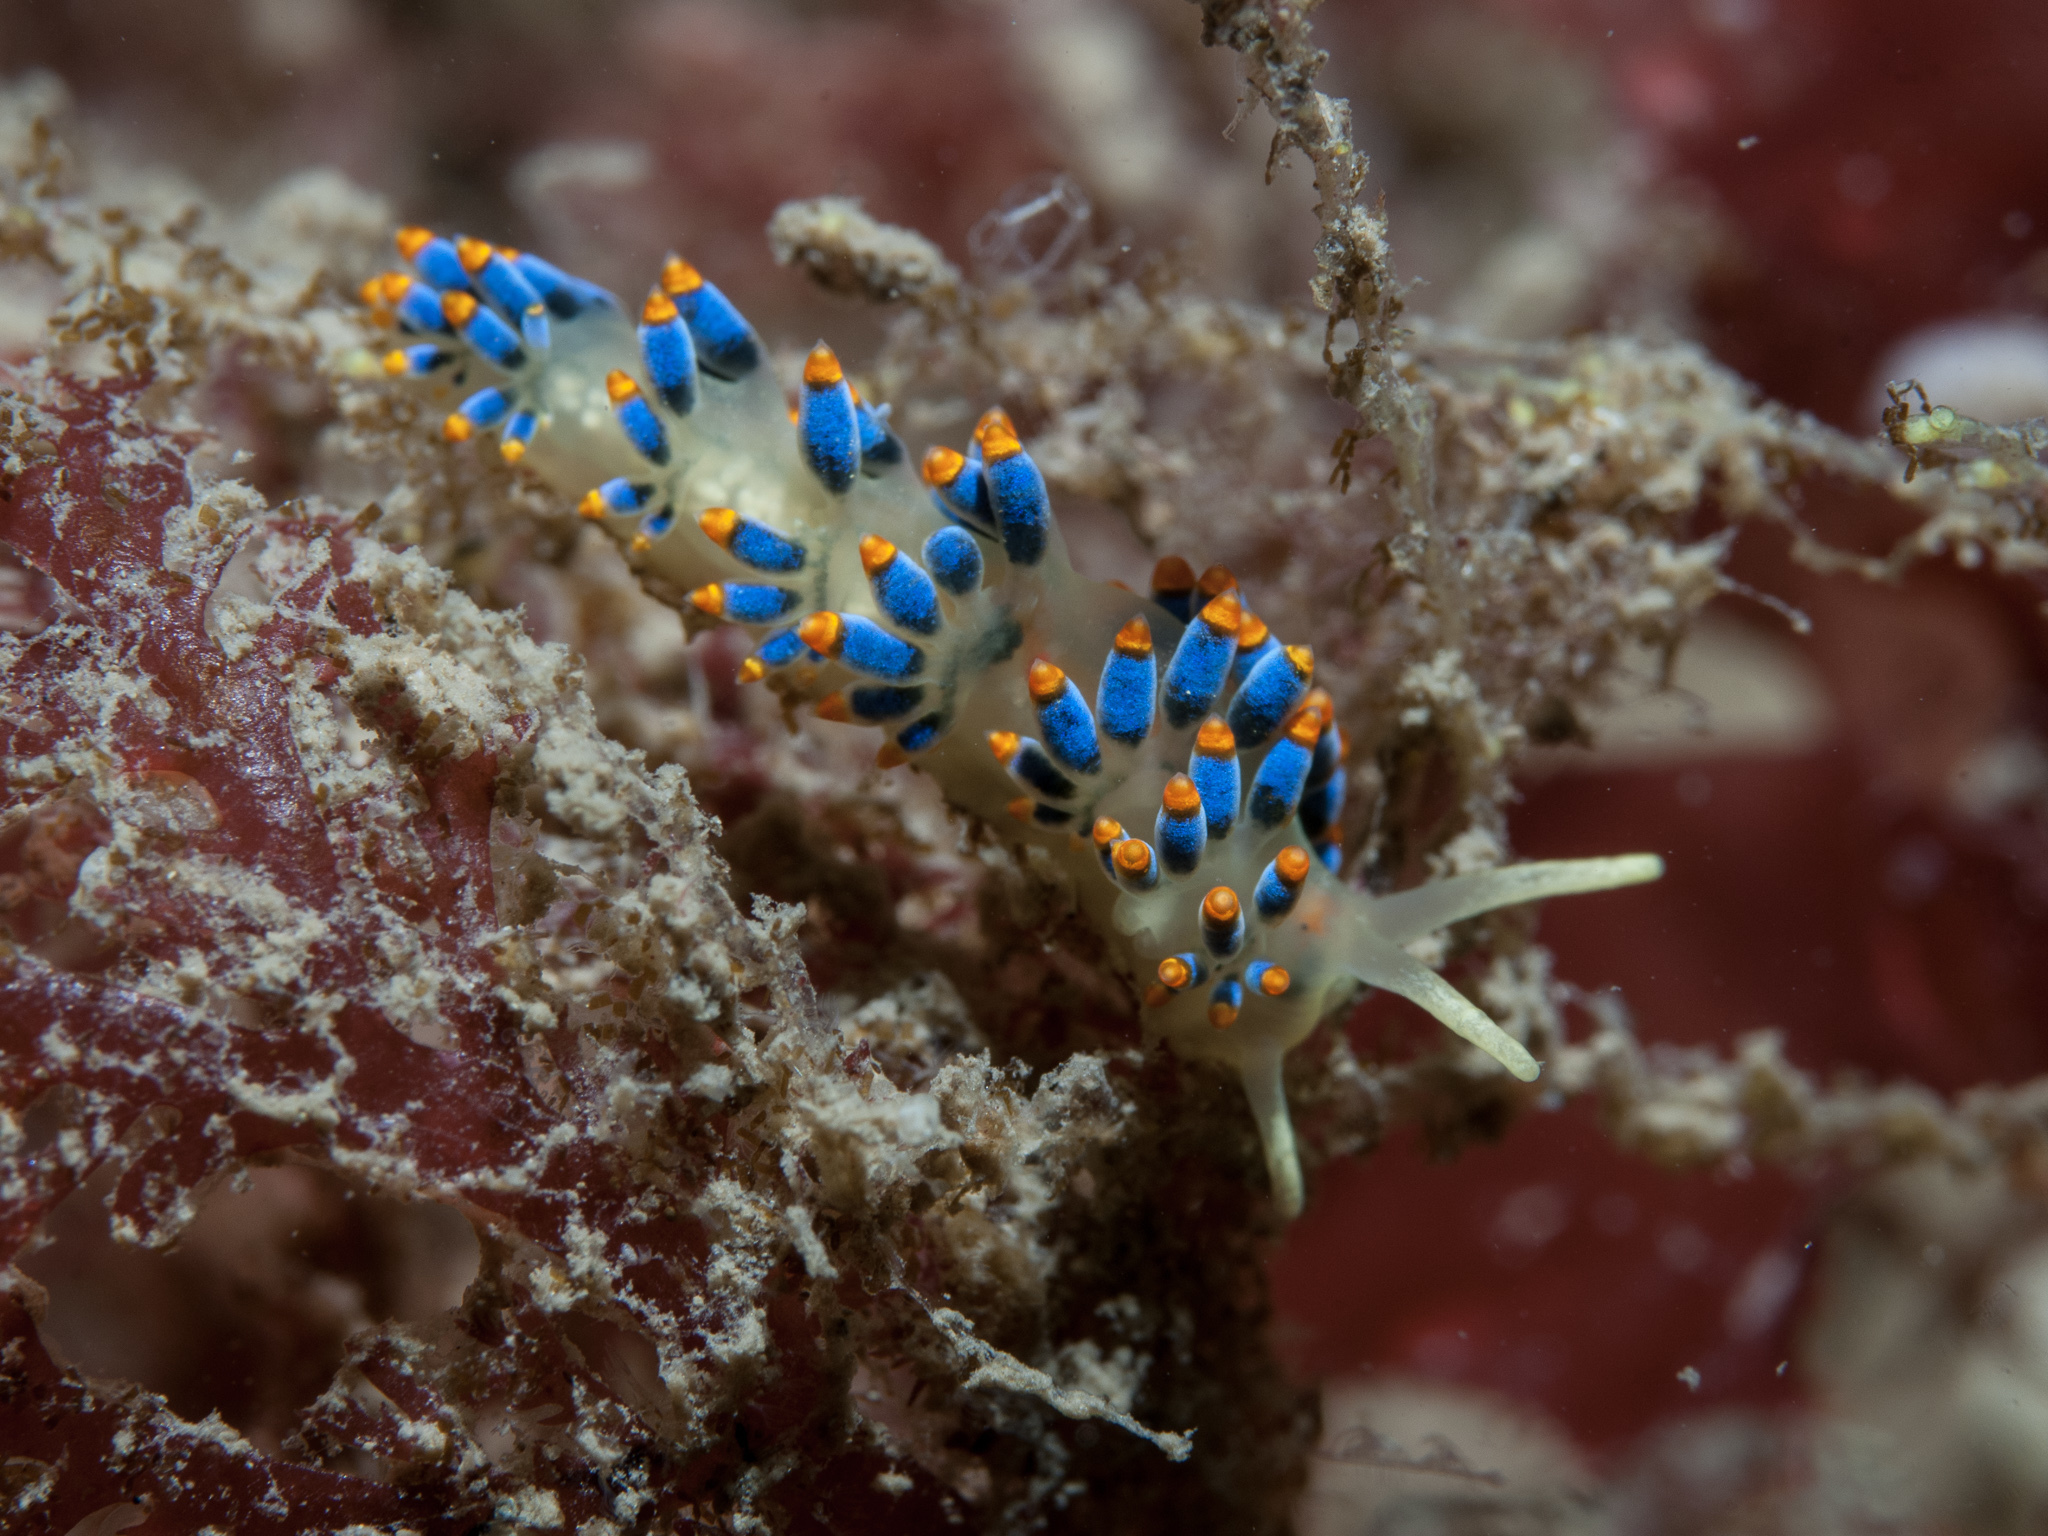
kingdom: Animalia
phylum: Mollusca
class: Gastropoda
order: Nudibranchia
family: Trinchesiidae
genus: Trinchesia
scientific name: Trinchesia cuanensis
